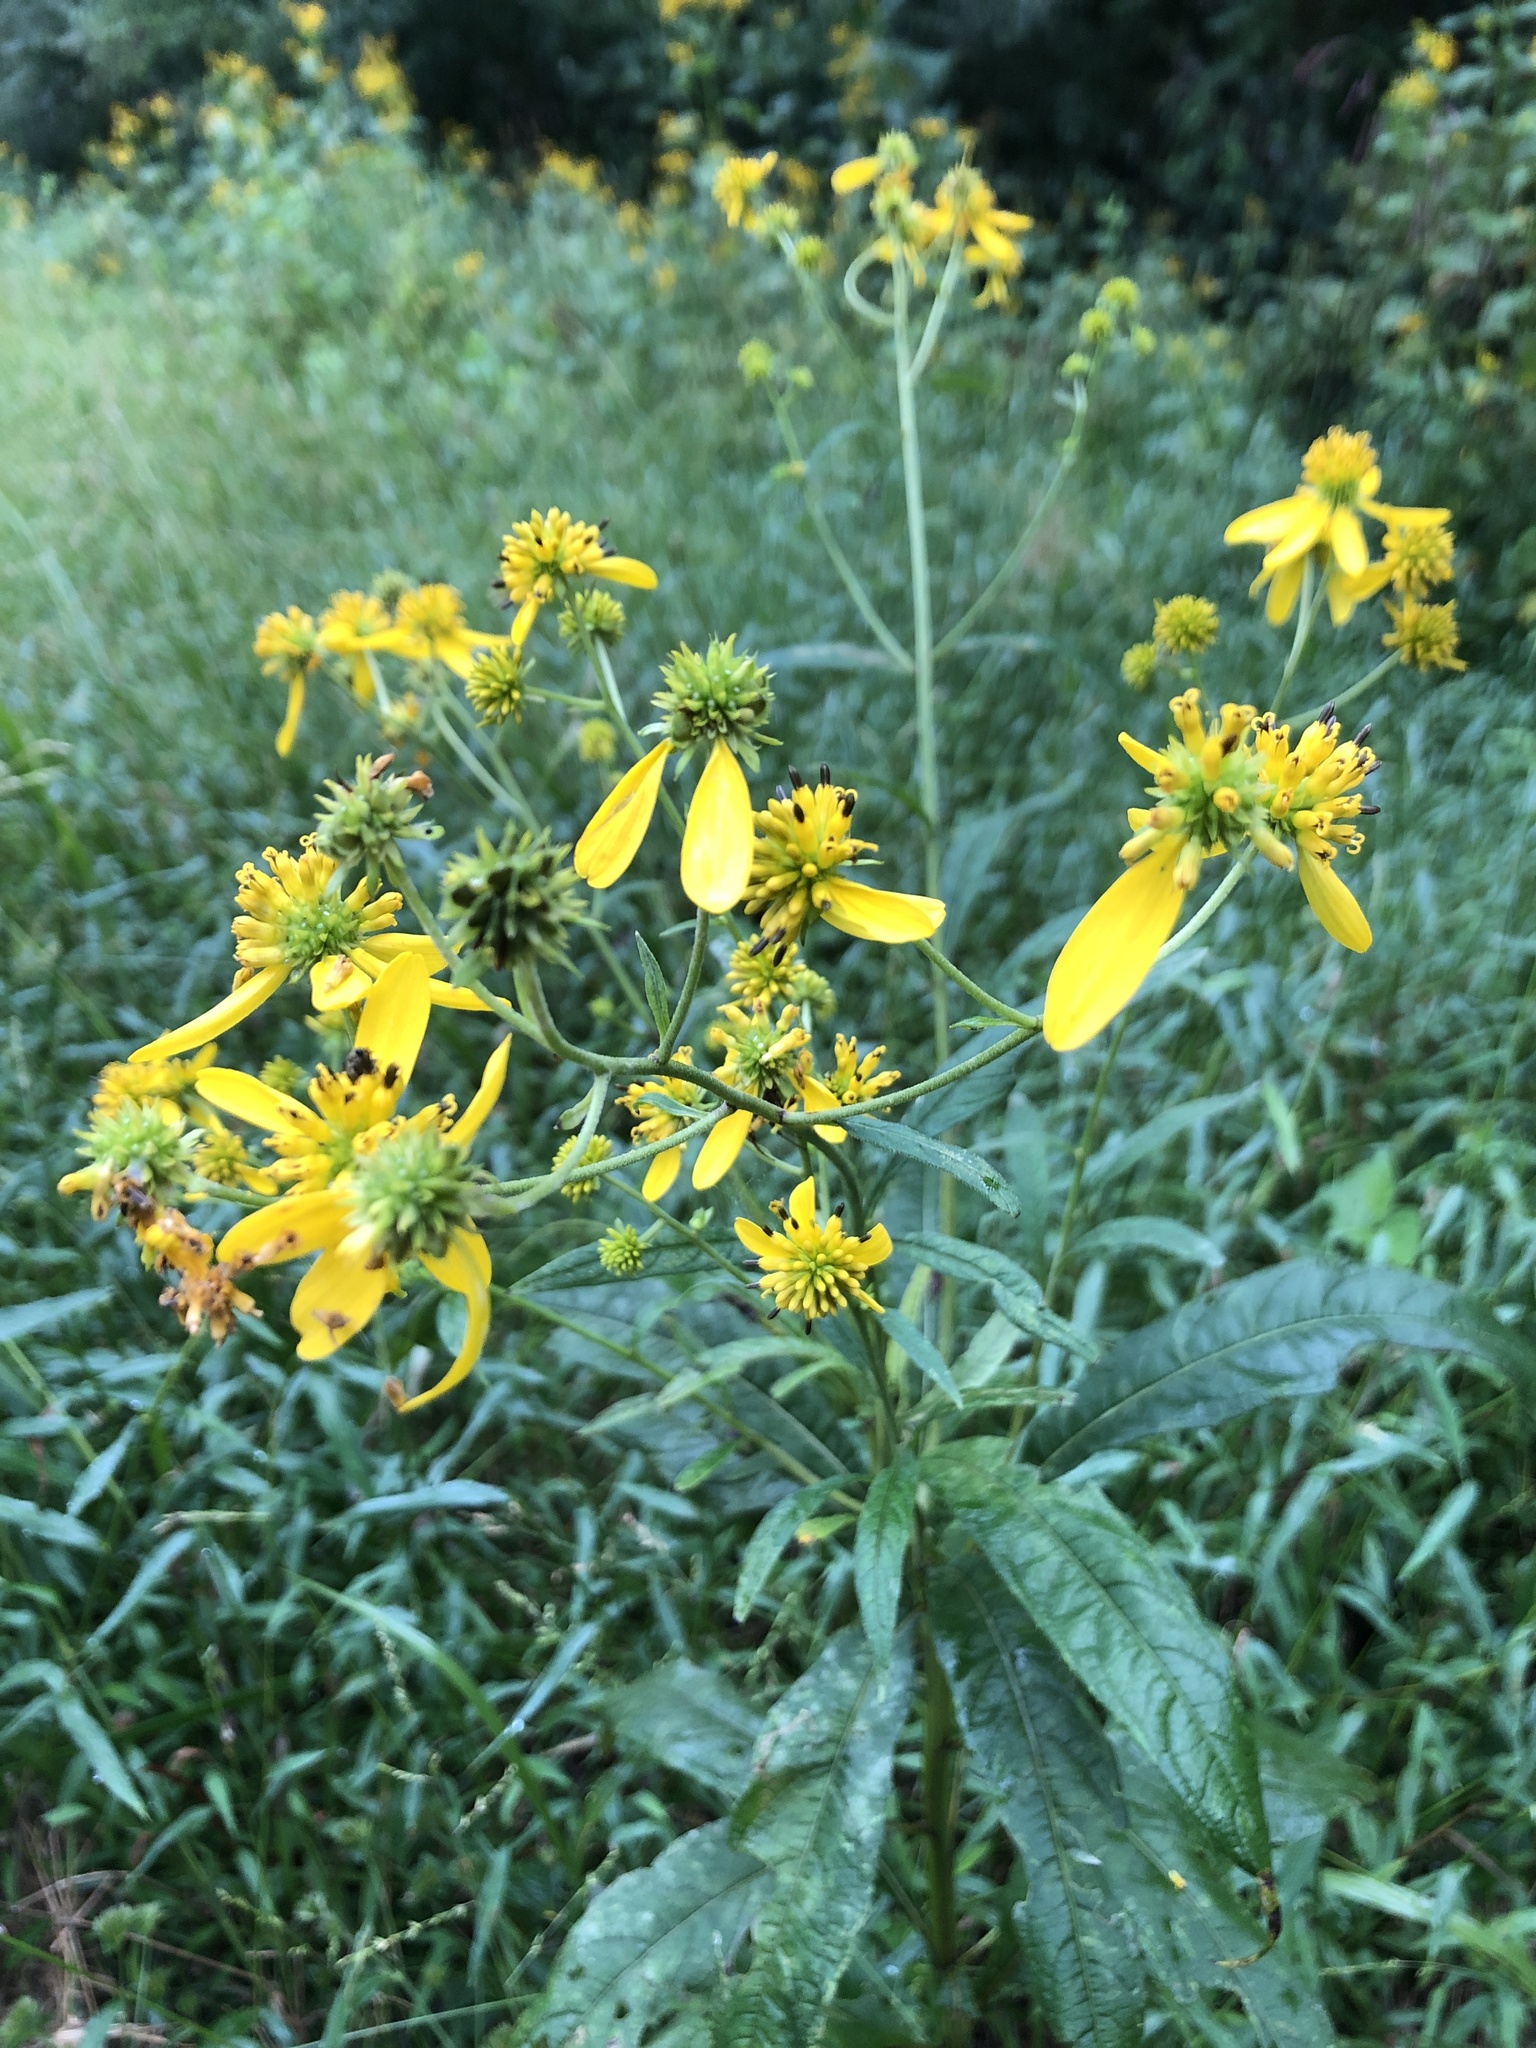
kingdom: Plantae
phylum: Tracheophyta
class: Magnoliopsida
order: Asterales
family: Asteraceae
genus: Verbesina
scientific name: Verbesina alternifolia
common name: Wingstem
